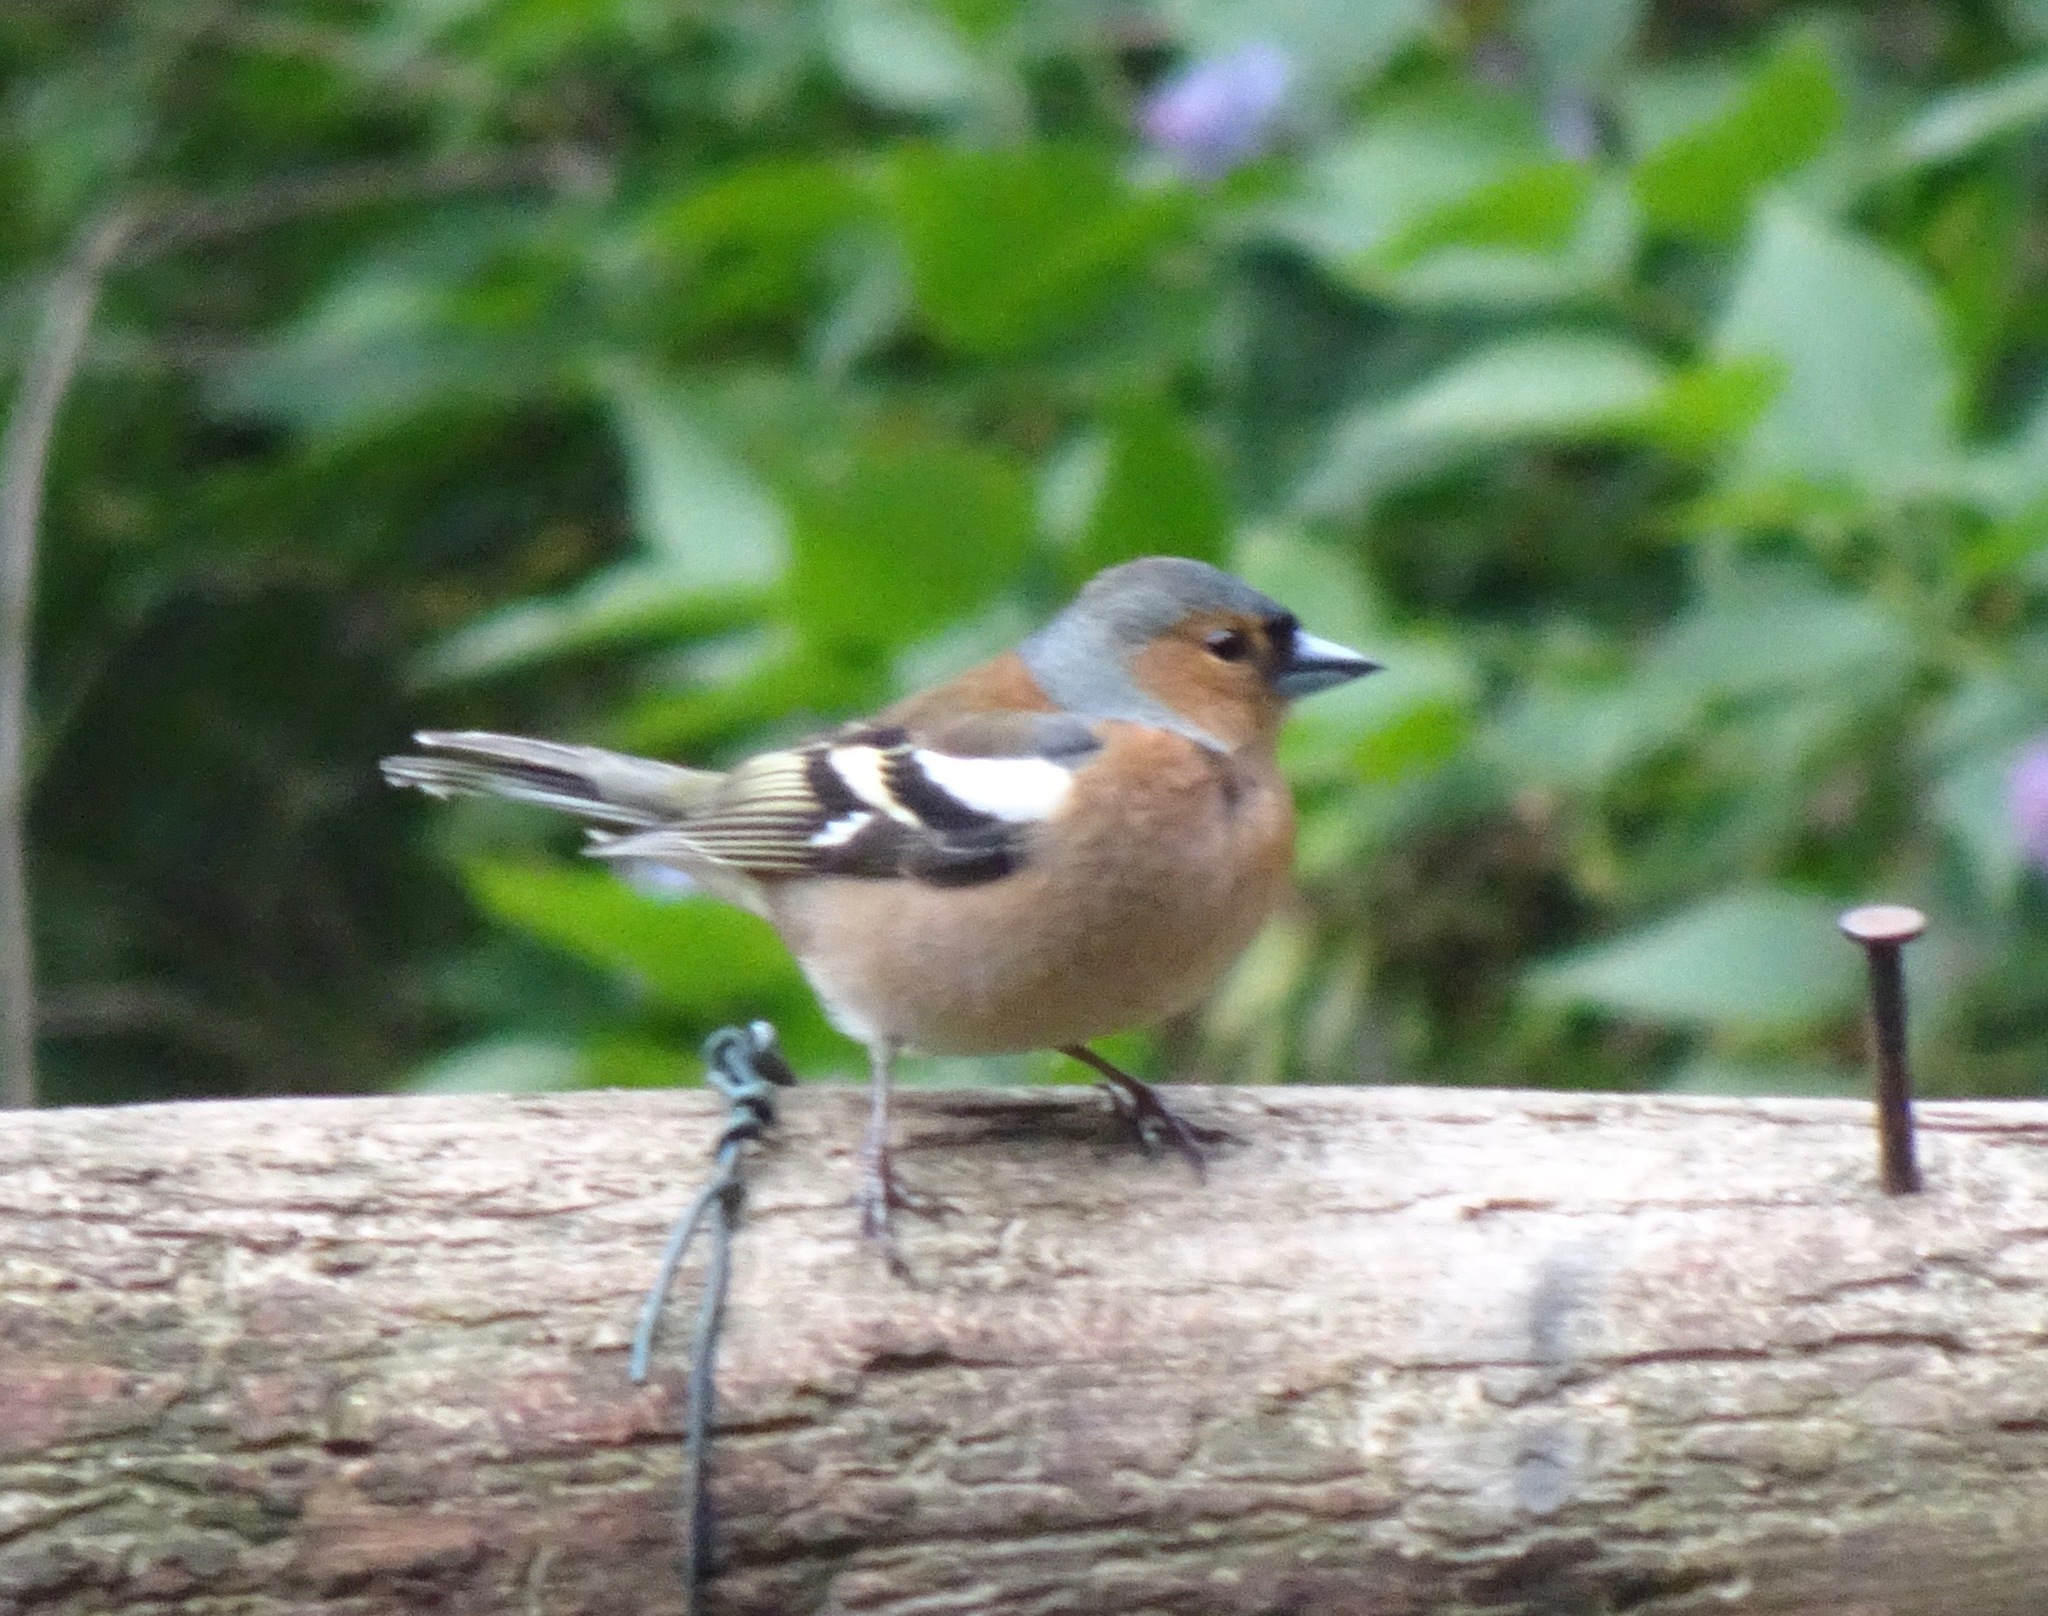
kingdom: Animalia
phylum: Chordata
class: Aves
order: Passeriformes
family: Fringillidae
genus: Fringilla
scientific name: Fringilla coelebs
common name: Common chaffinch
